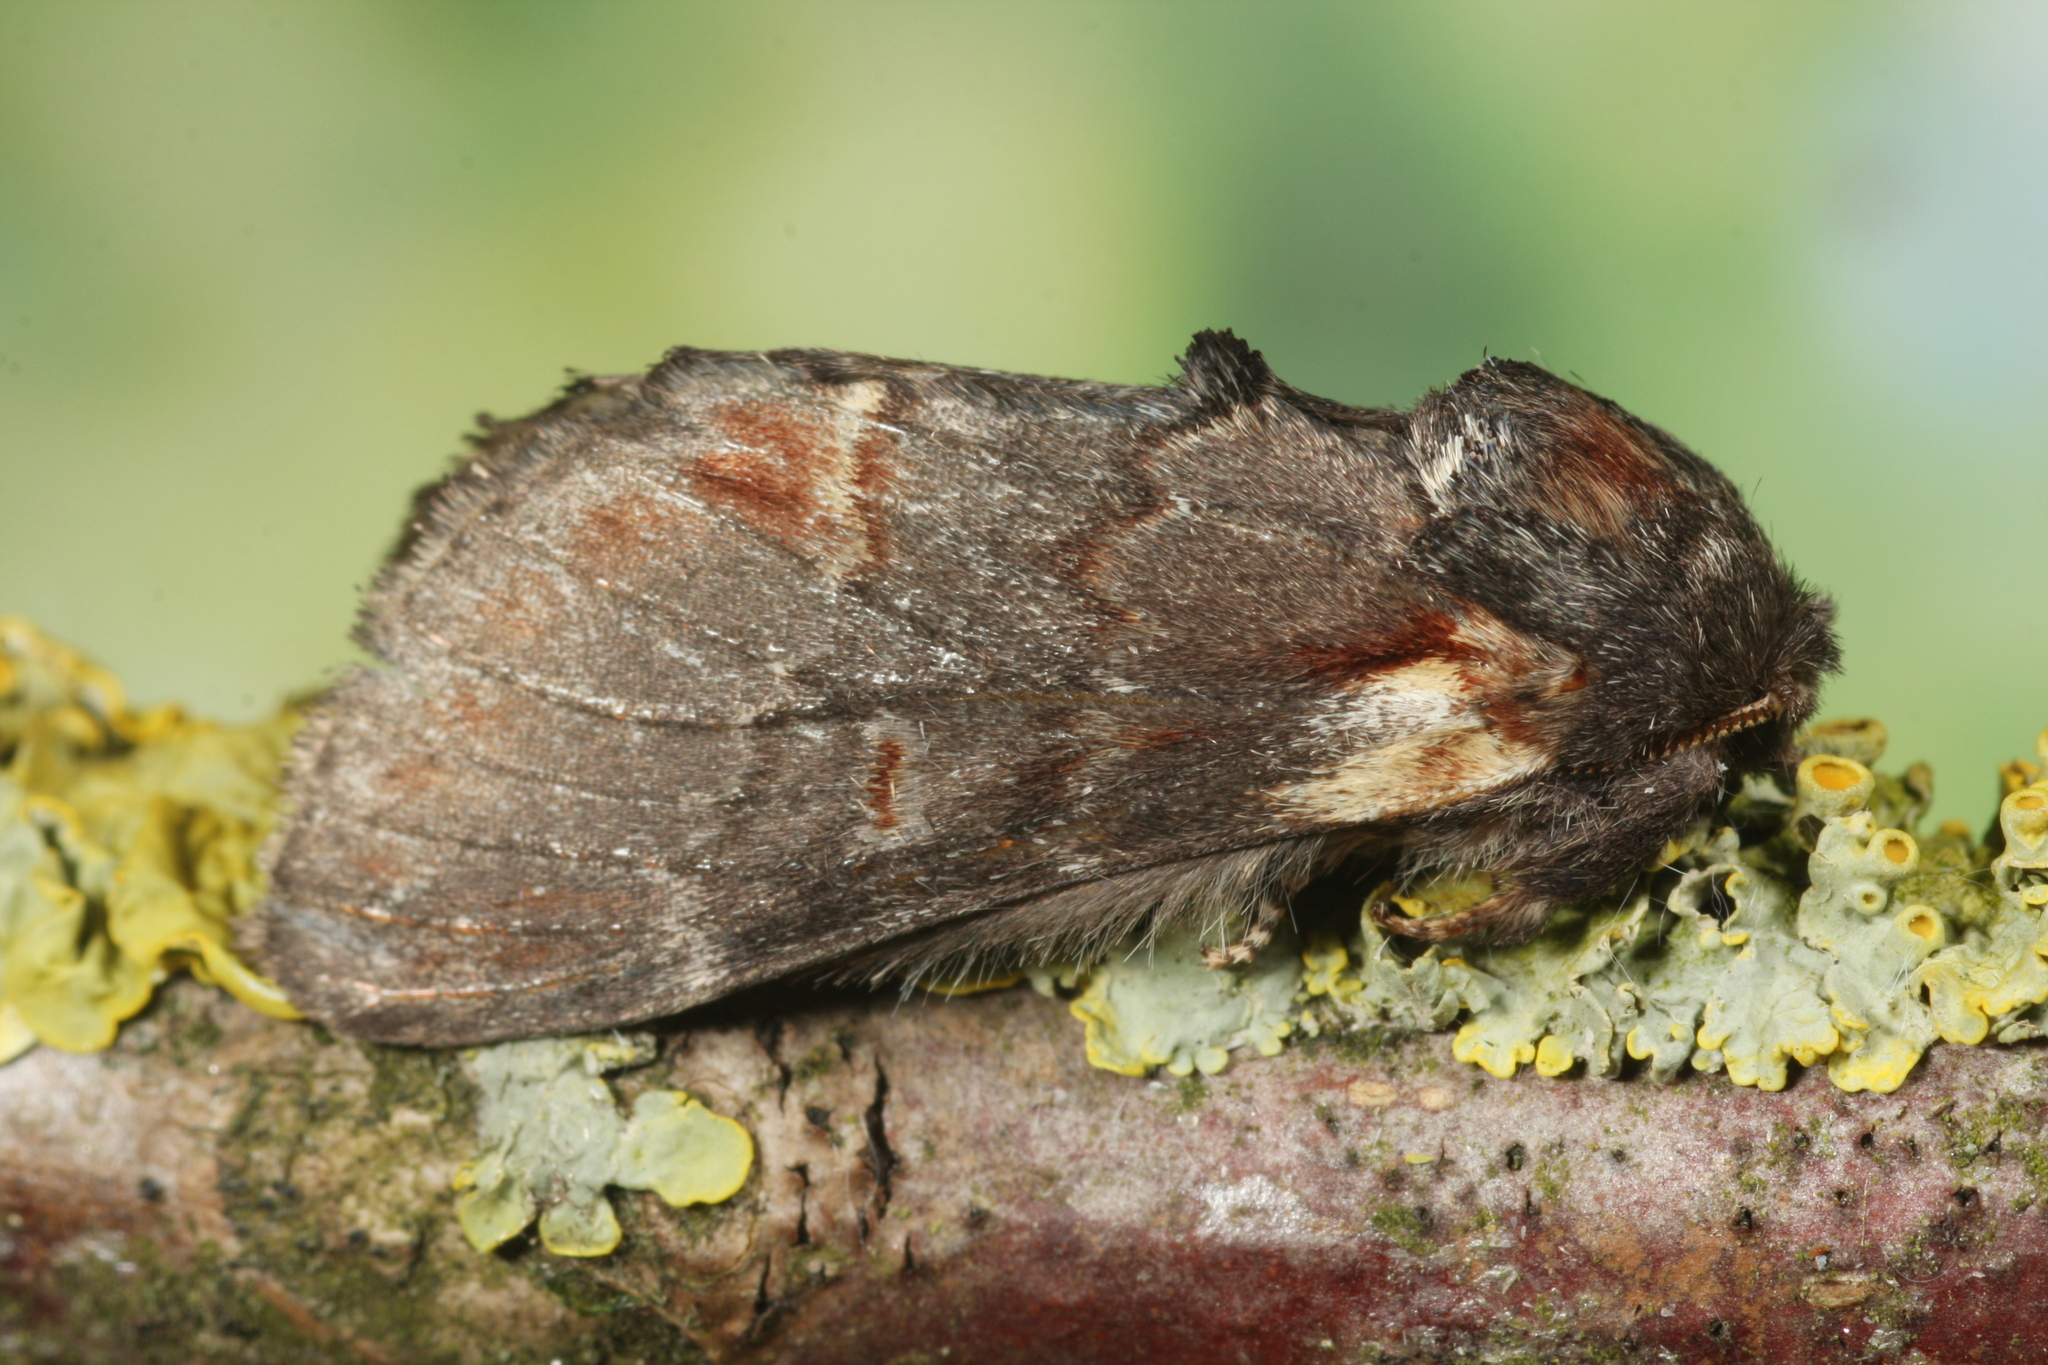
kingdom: Animalia
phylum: Arthropoda
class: Insecta
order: Lepidoptera
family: Notodontidae
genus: Notodonta
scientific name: Notodonta dromedarius
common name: Iron prominent
